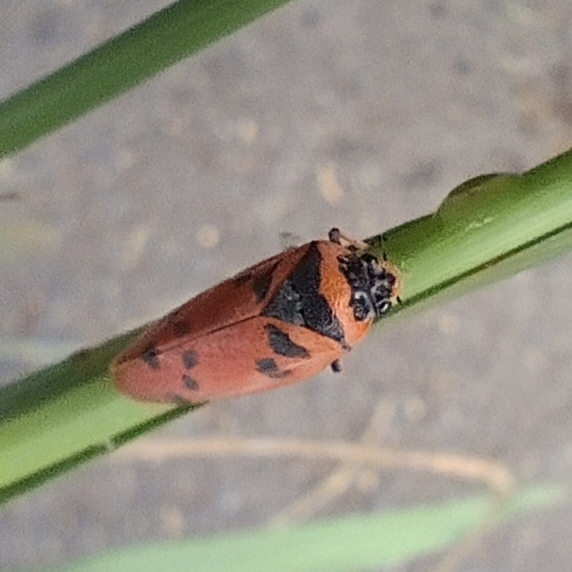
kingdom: Animalia
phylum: Arthropoda
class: Insecta
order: Hemiptera
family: Cercopidae
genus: Locris
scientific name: Locris arithmetica
